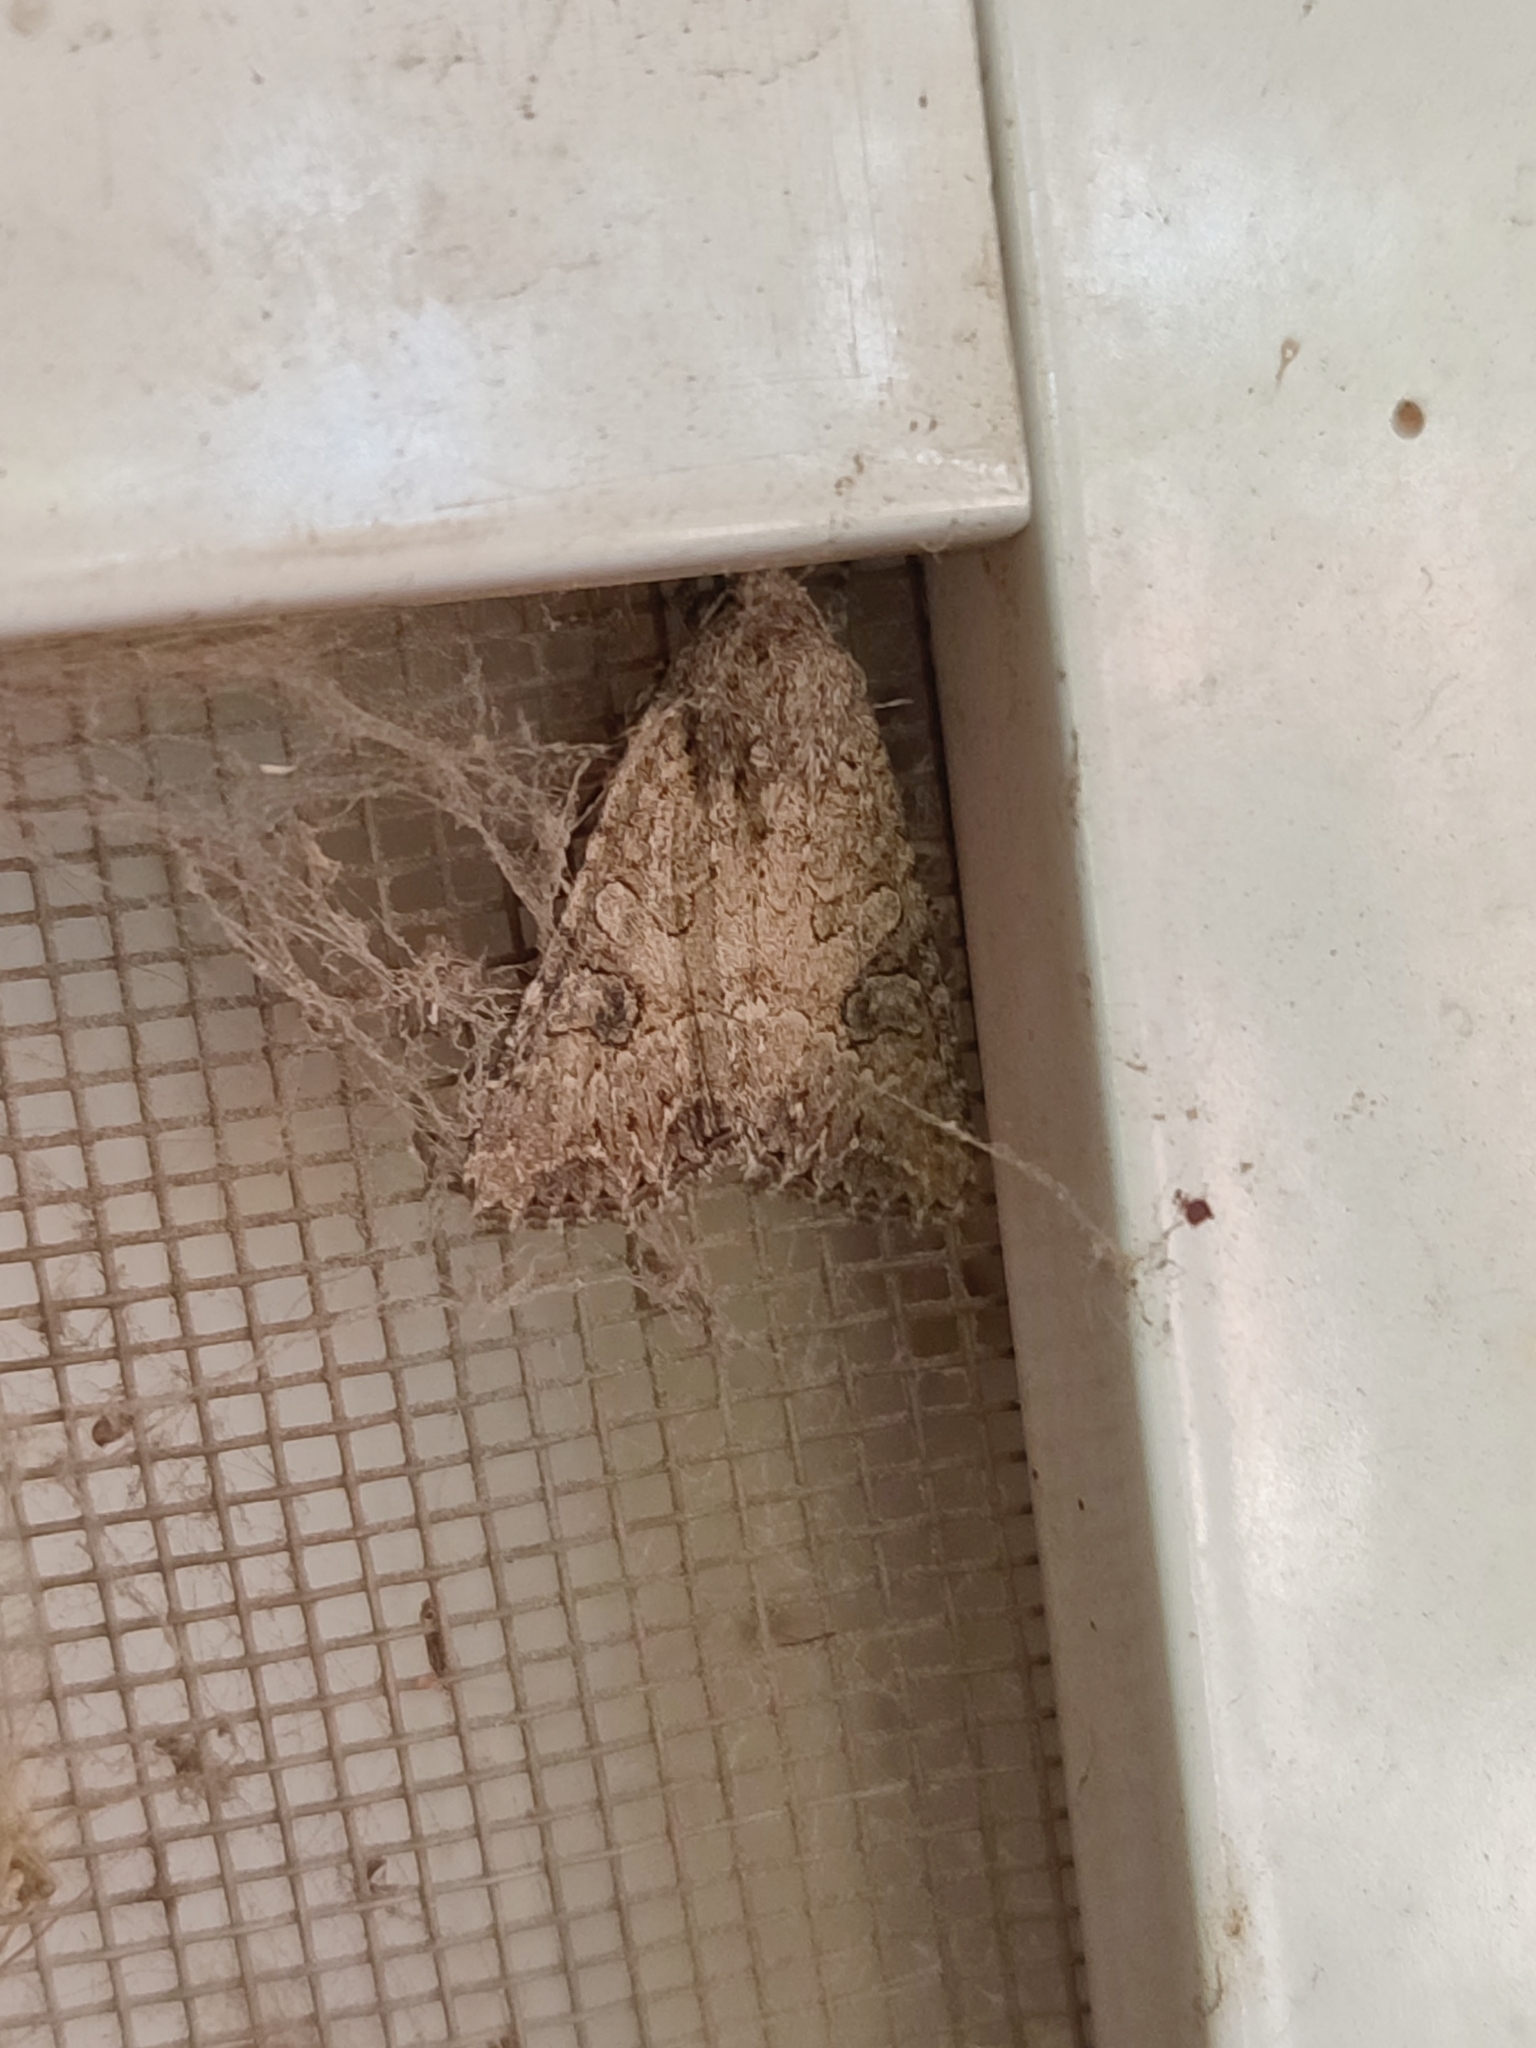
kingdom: Animalia
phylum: Arthropoda
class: Insecta
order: Lepidoptera
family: Noctuidae
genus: Anarta
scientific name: Anarta trifolii
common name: Clover cutworm moth
